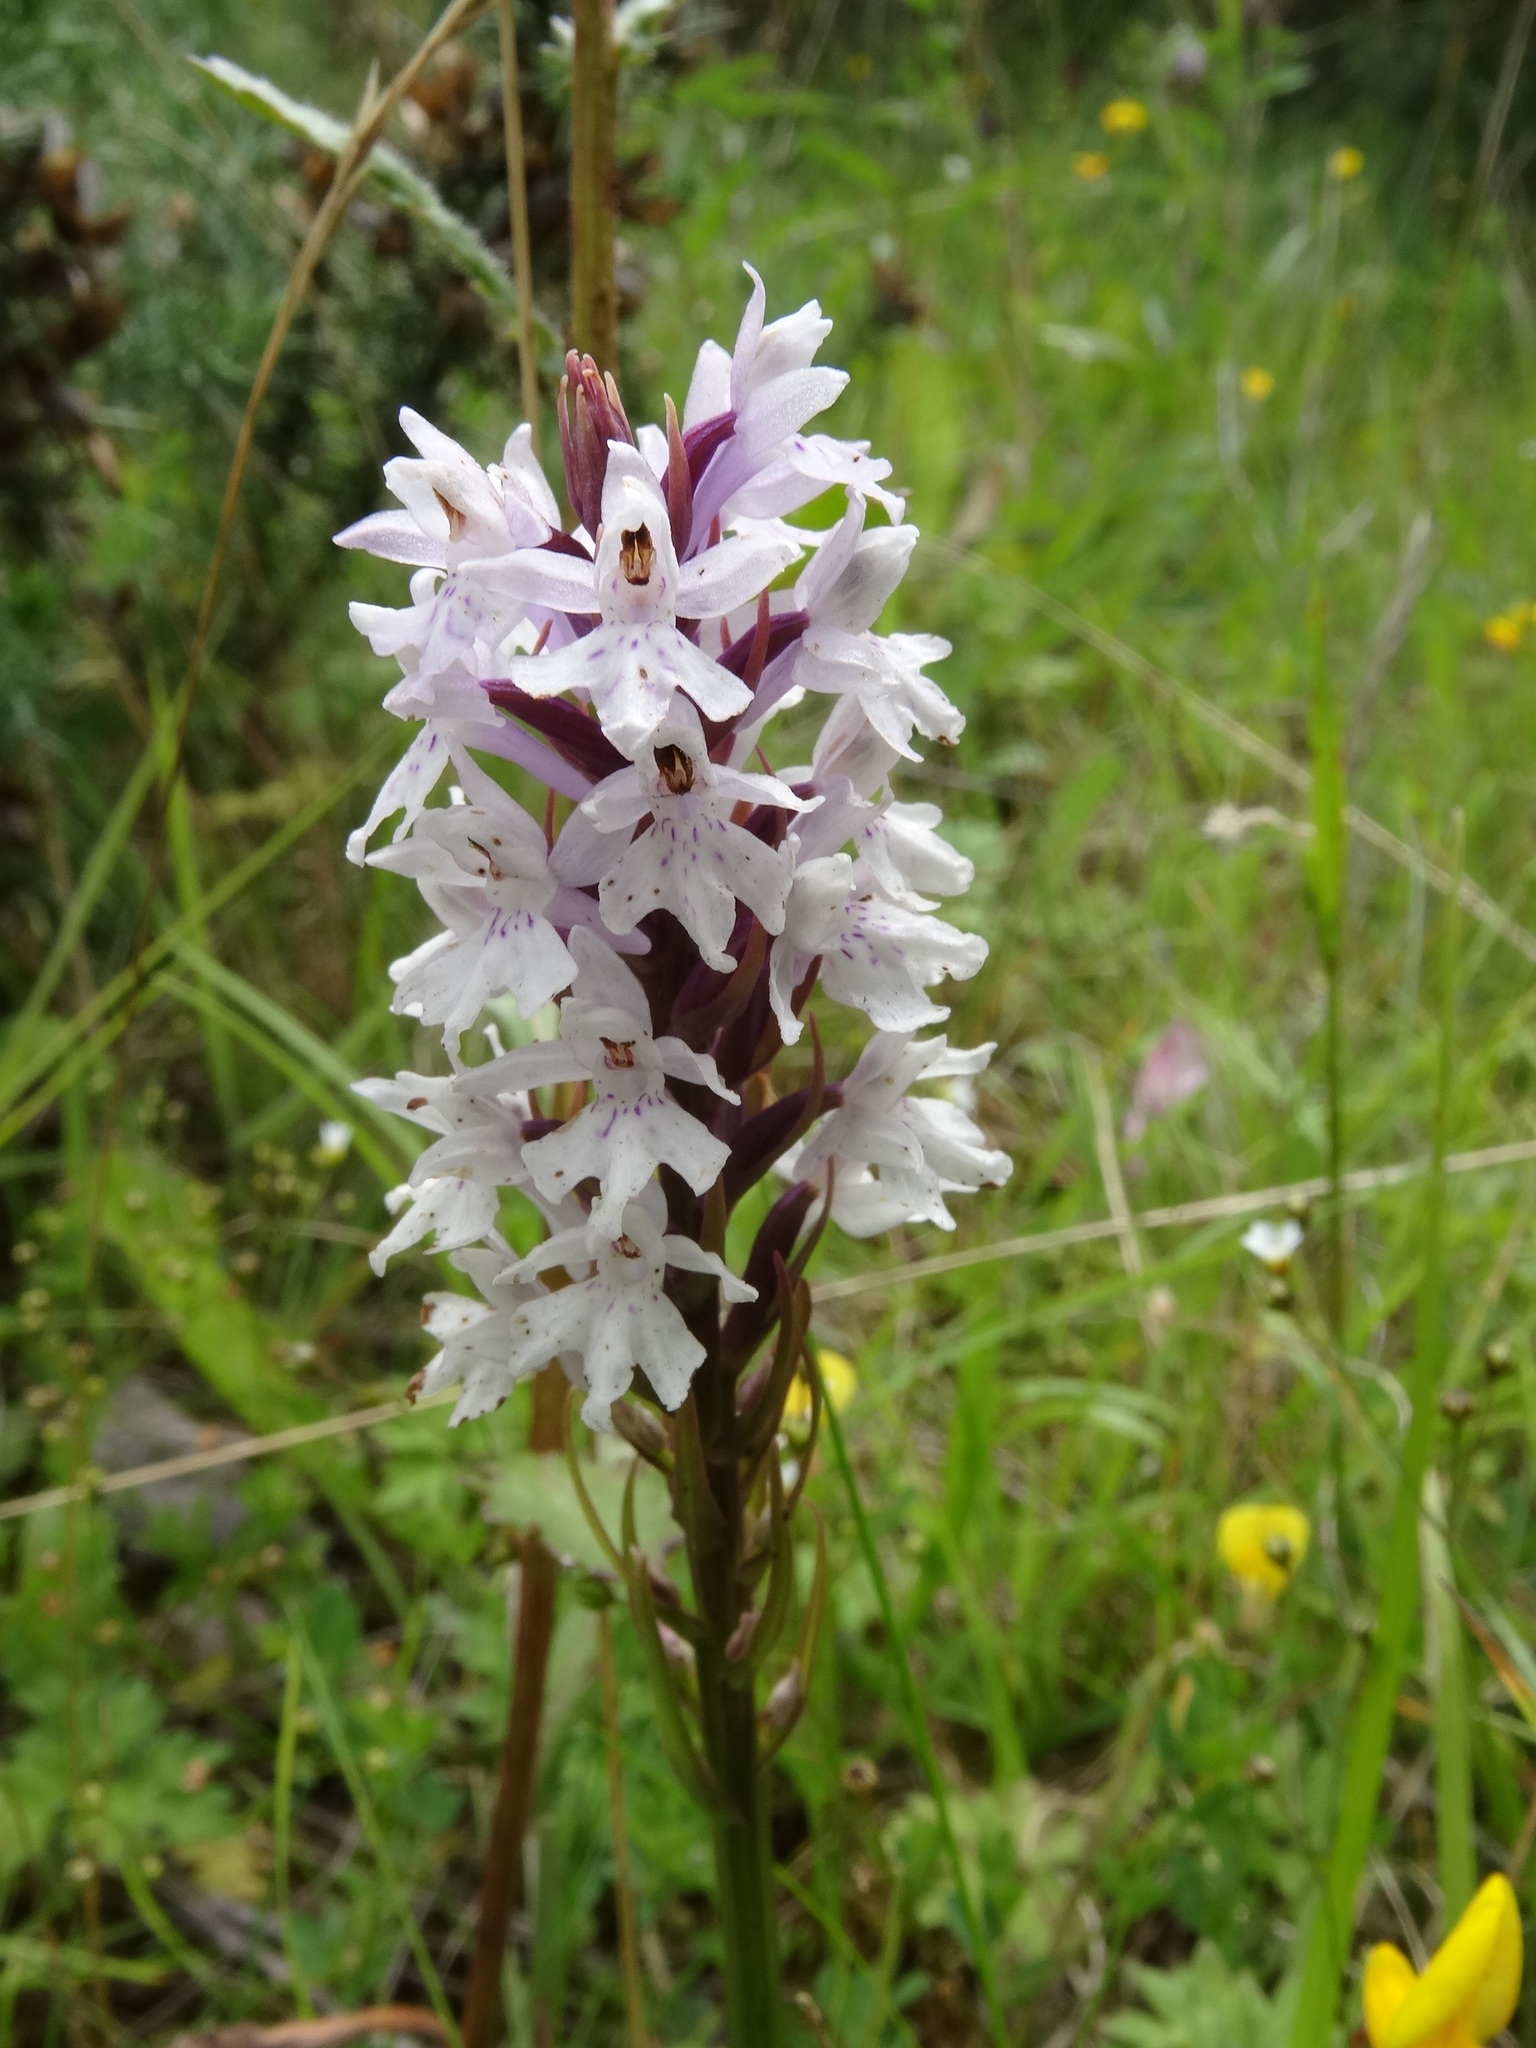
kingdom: Plantae
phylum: Tracheophyta
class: Liliopsida
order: Asparagales
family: Orchidaceae
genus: Dactylorhiza
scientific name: Dactylorhiza maculata
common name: Heath spotted-orchid
